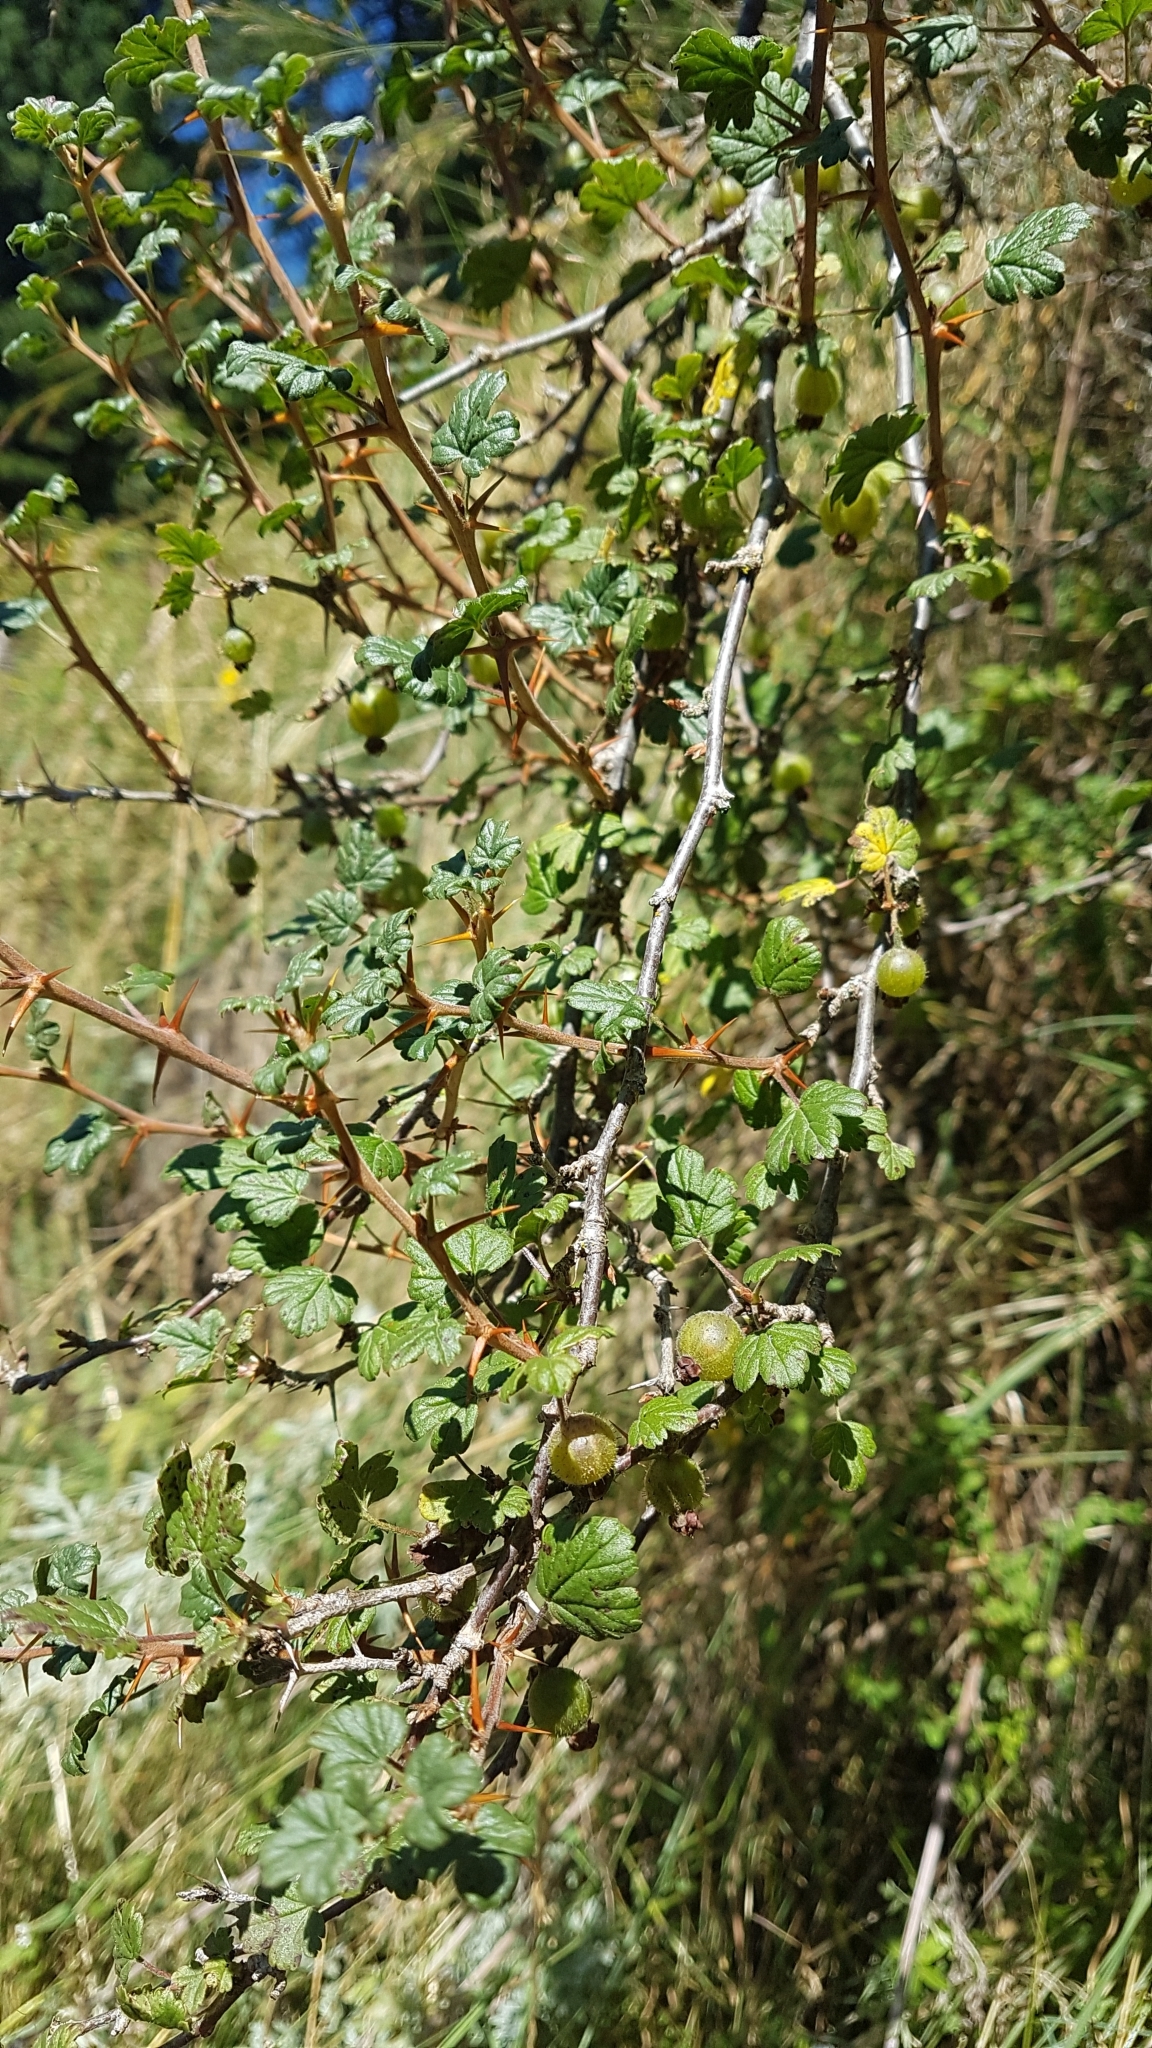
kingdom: Plantae
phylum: Tracheophyta
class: Magnoliopsida
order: Saxifragales
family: Grossulariaceae
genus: Ribes
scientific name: Ribes uva-crispa
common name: Gooseberry
